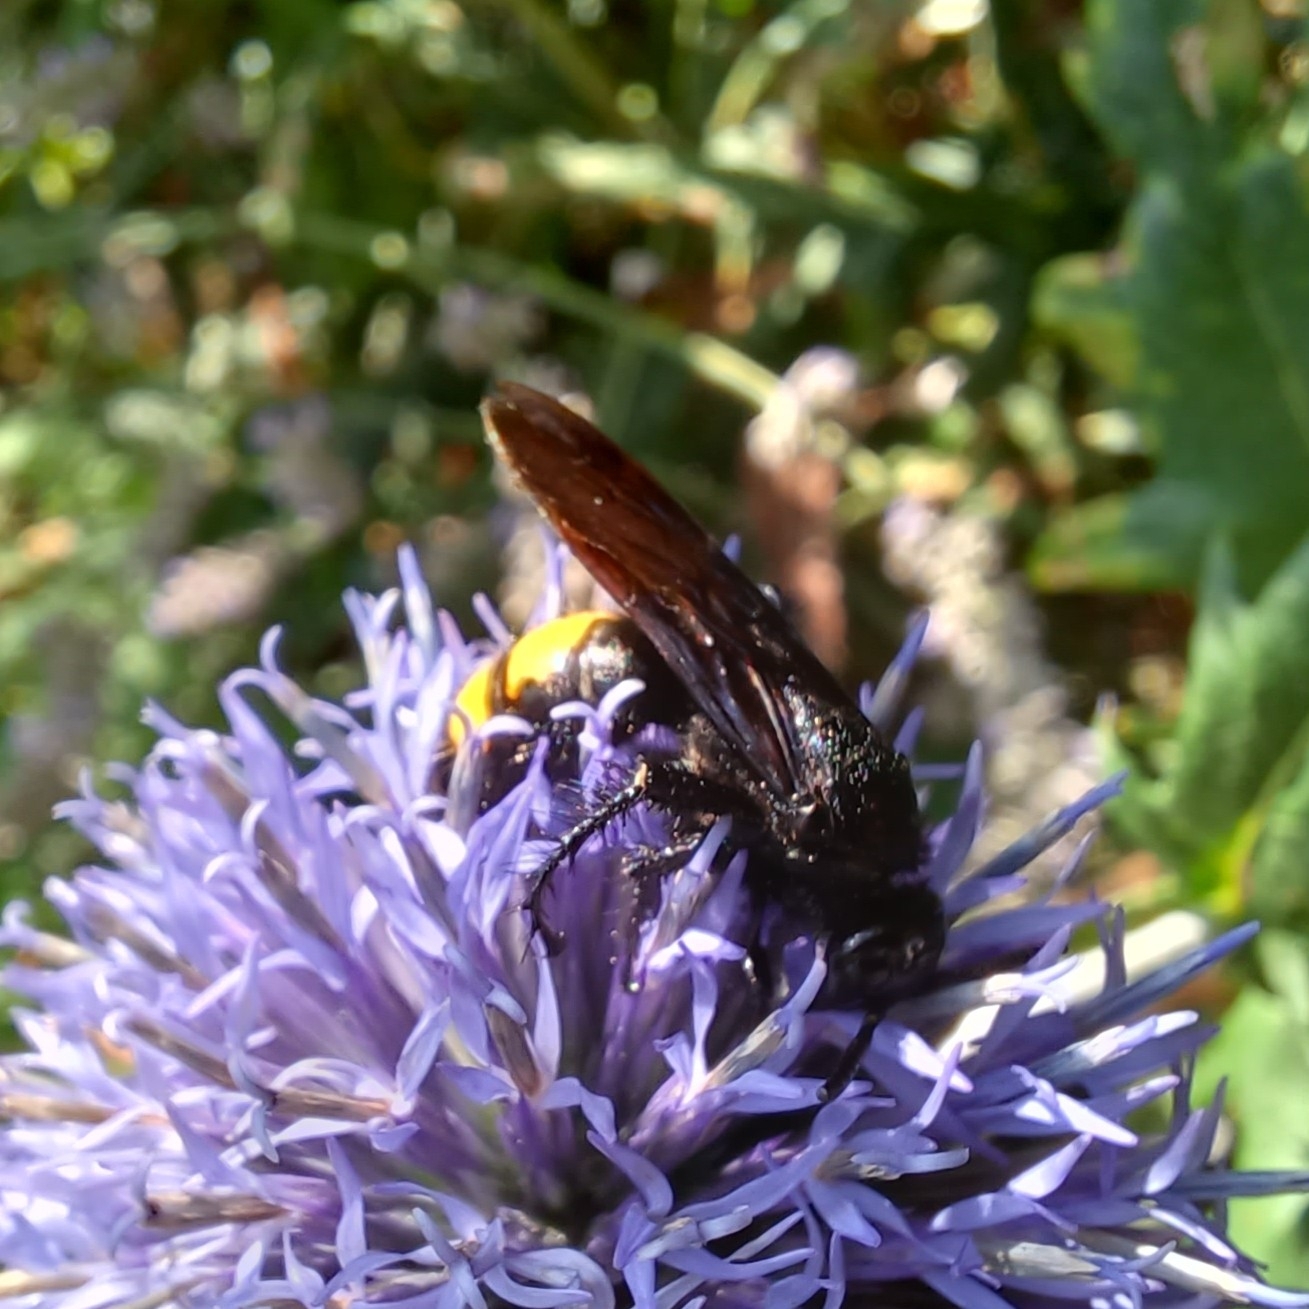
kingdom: Animalia
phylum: Arthropoda
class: Insecta
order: Hymenoptera
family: Scoliidae
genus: Scolia
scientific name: Scolia hirta
